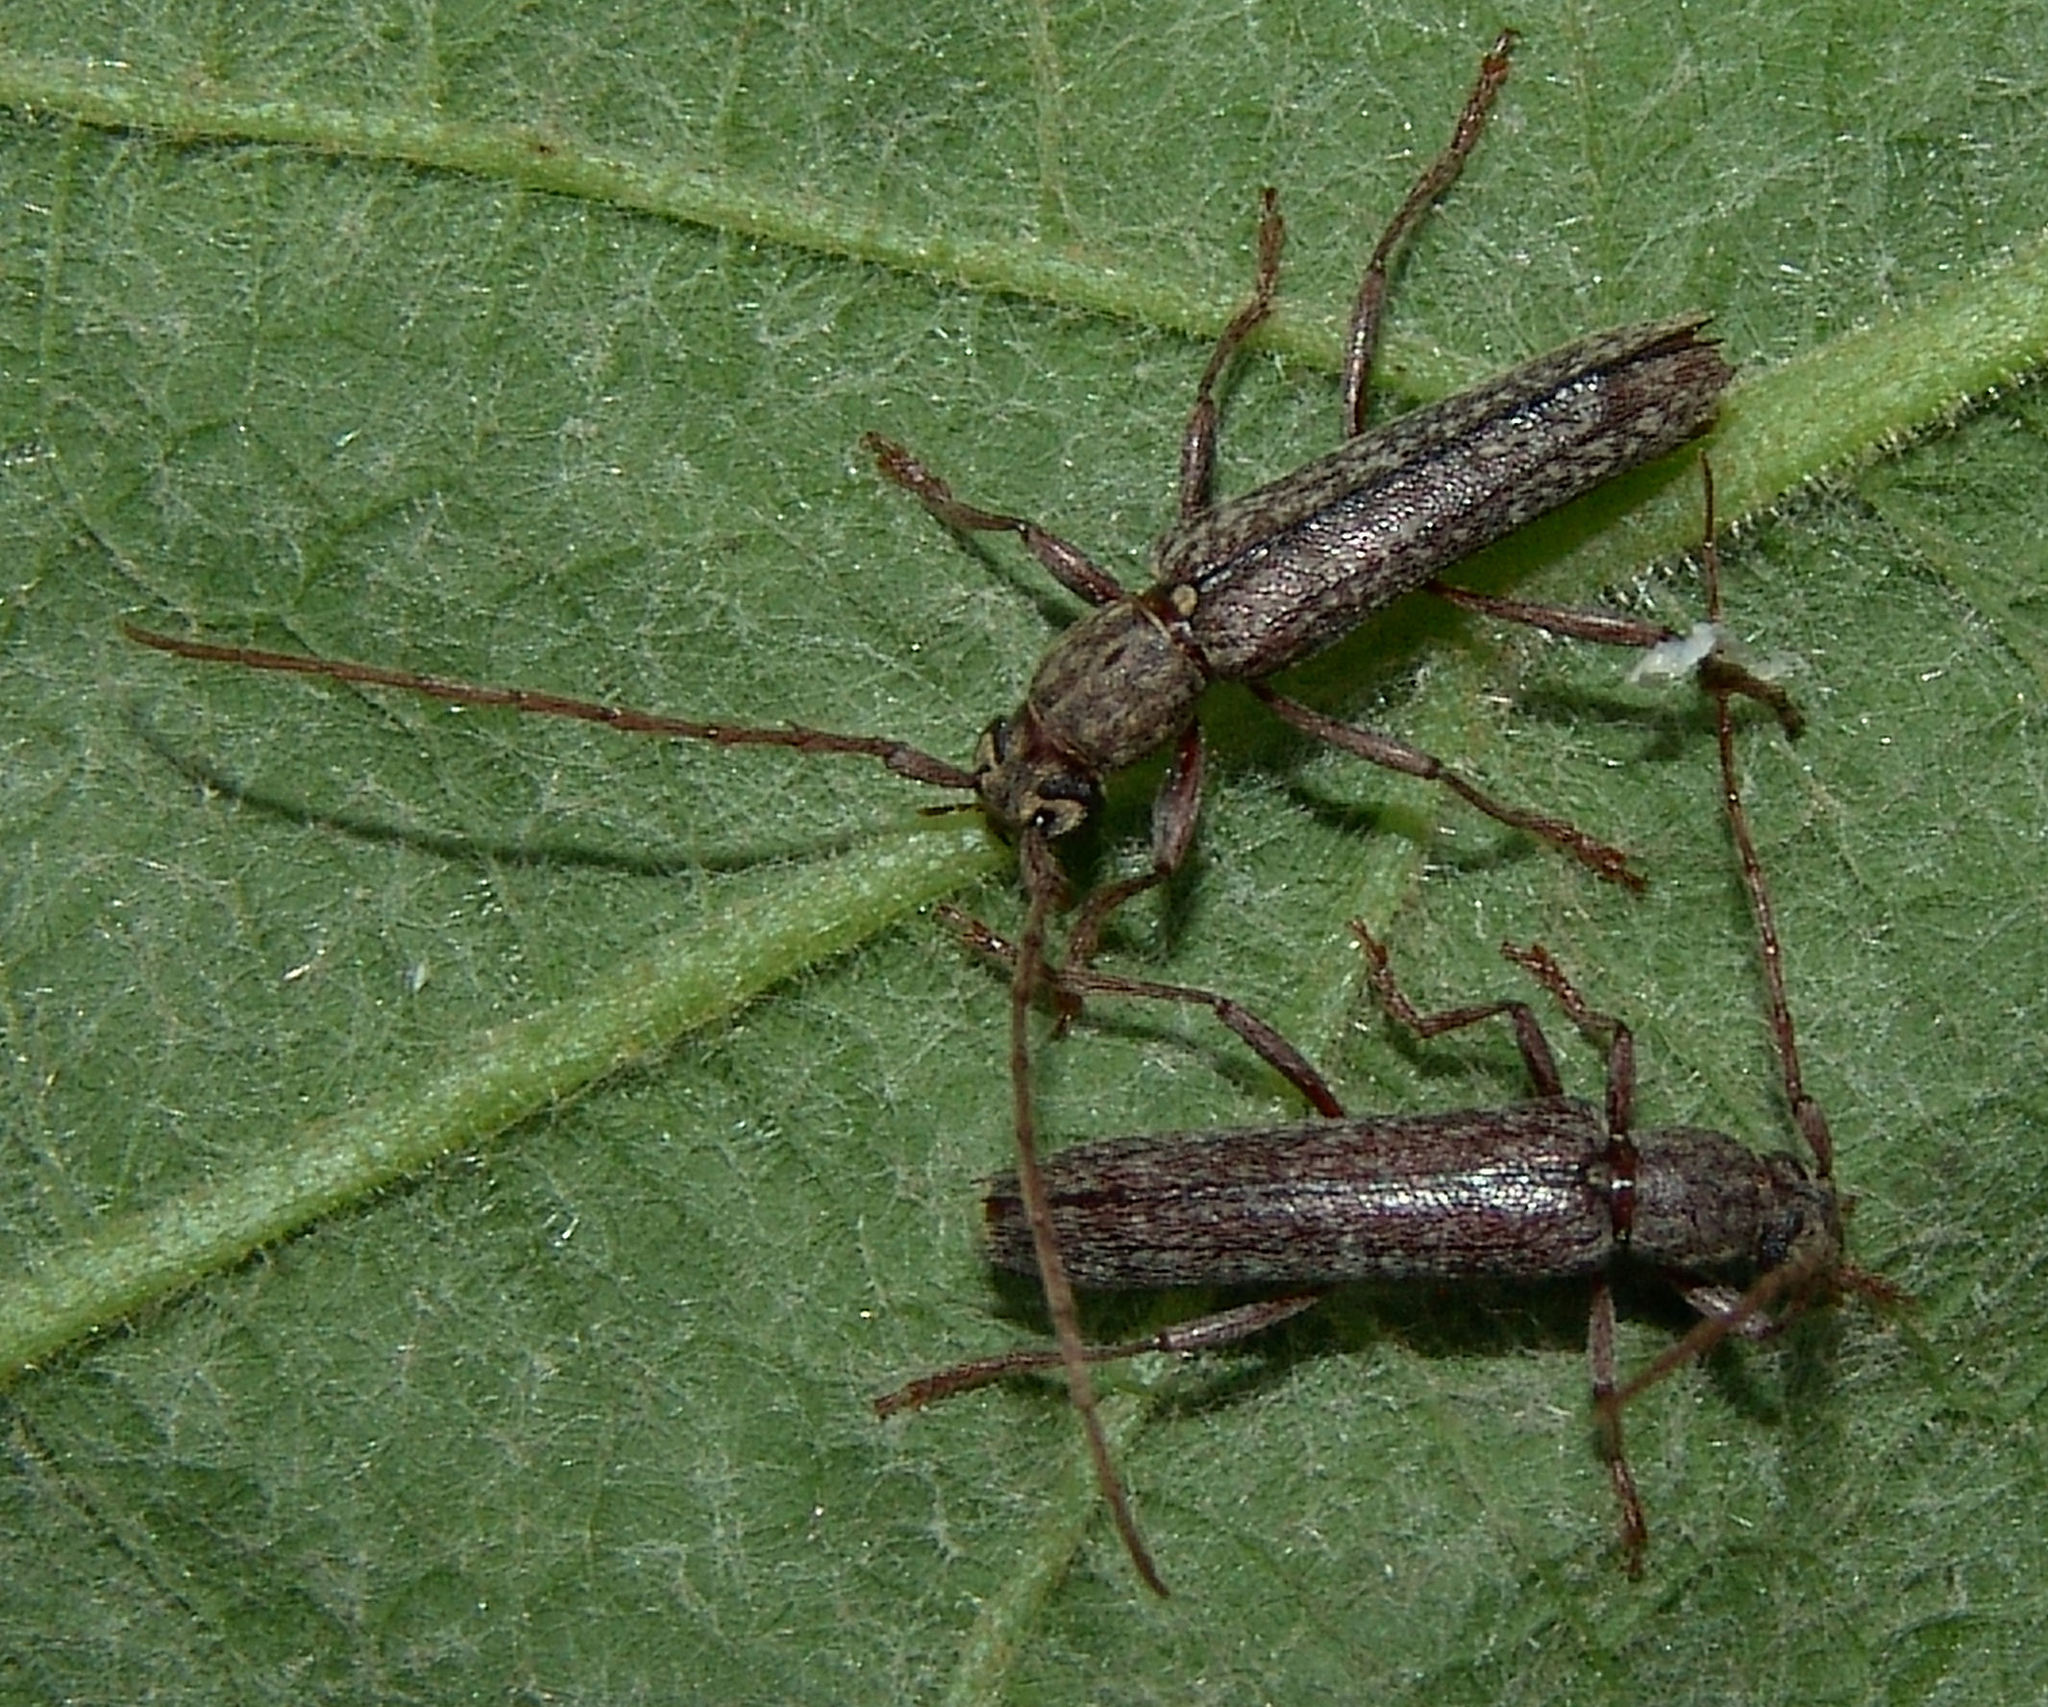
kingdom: Animalia
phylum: Arthropoda
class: Insecta
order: Coleoptera
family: Cerambycidae
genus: Anelaphus
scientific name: Anelaphus villosus
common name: Twig pruner
